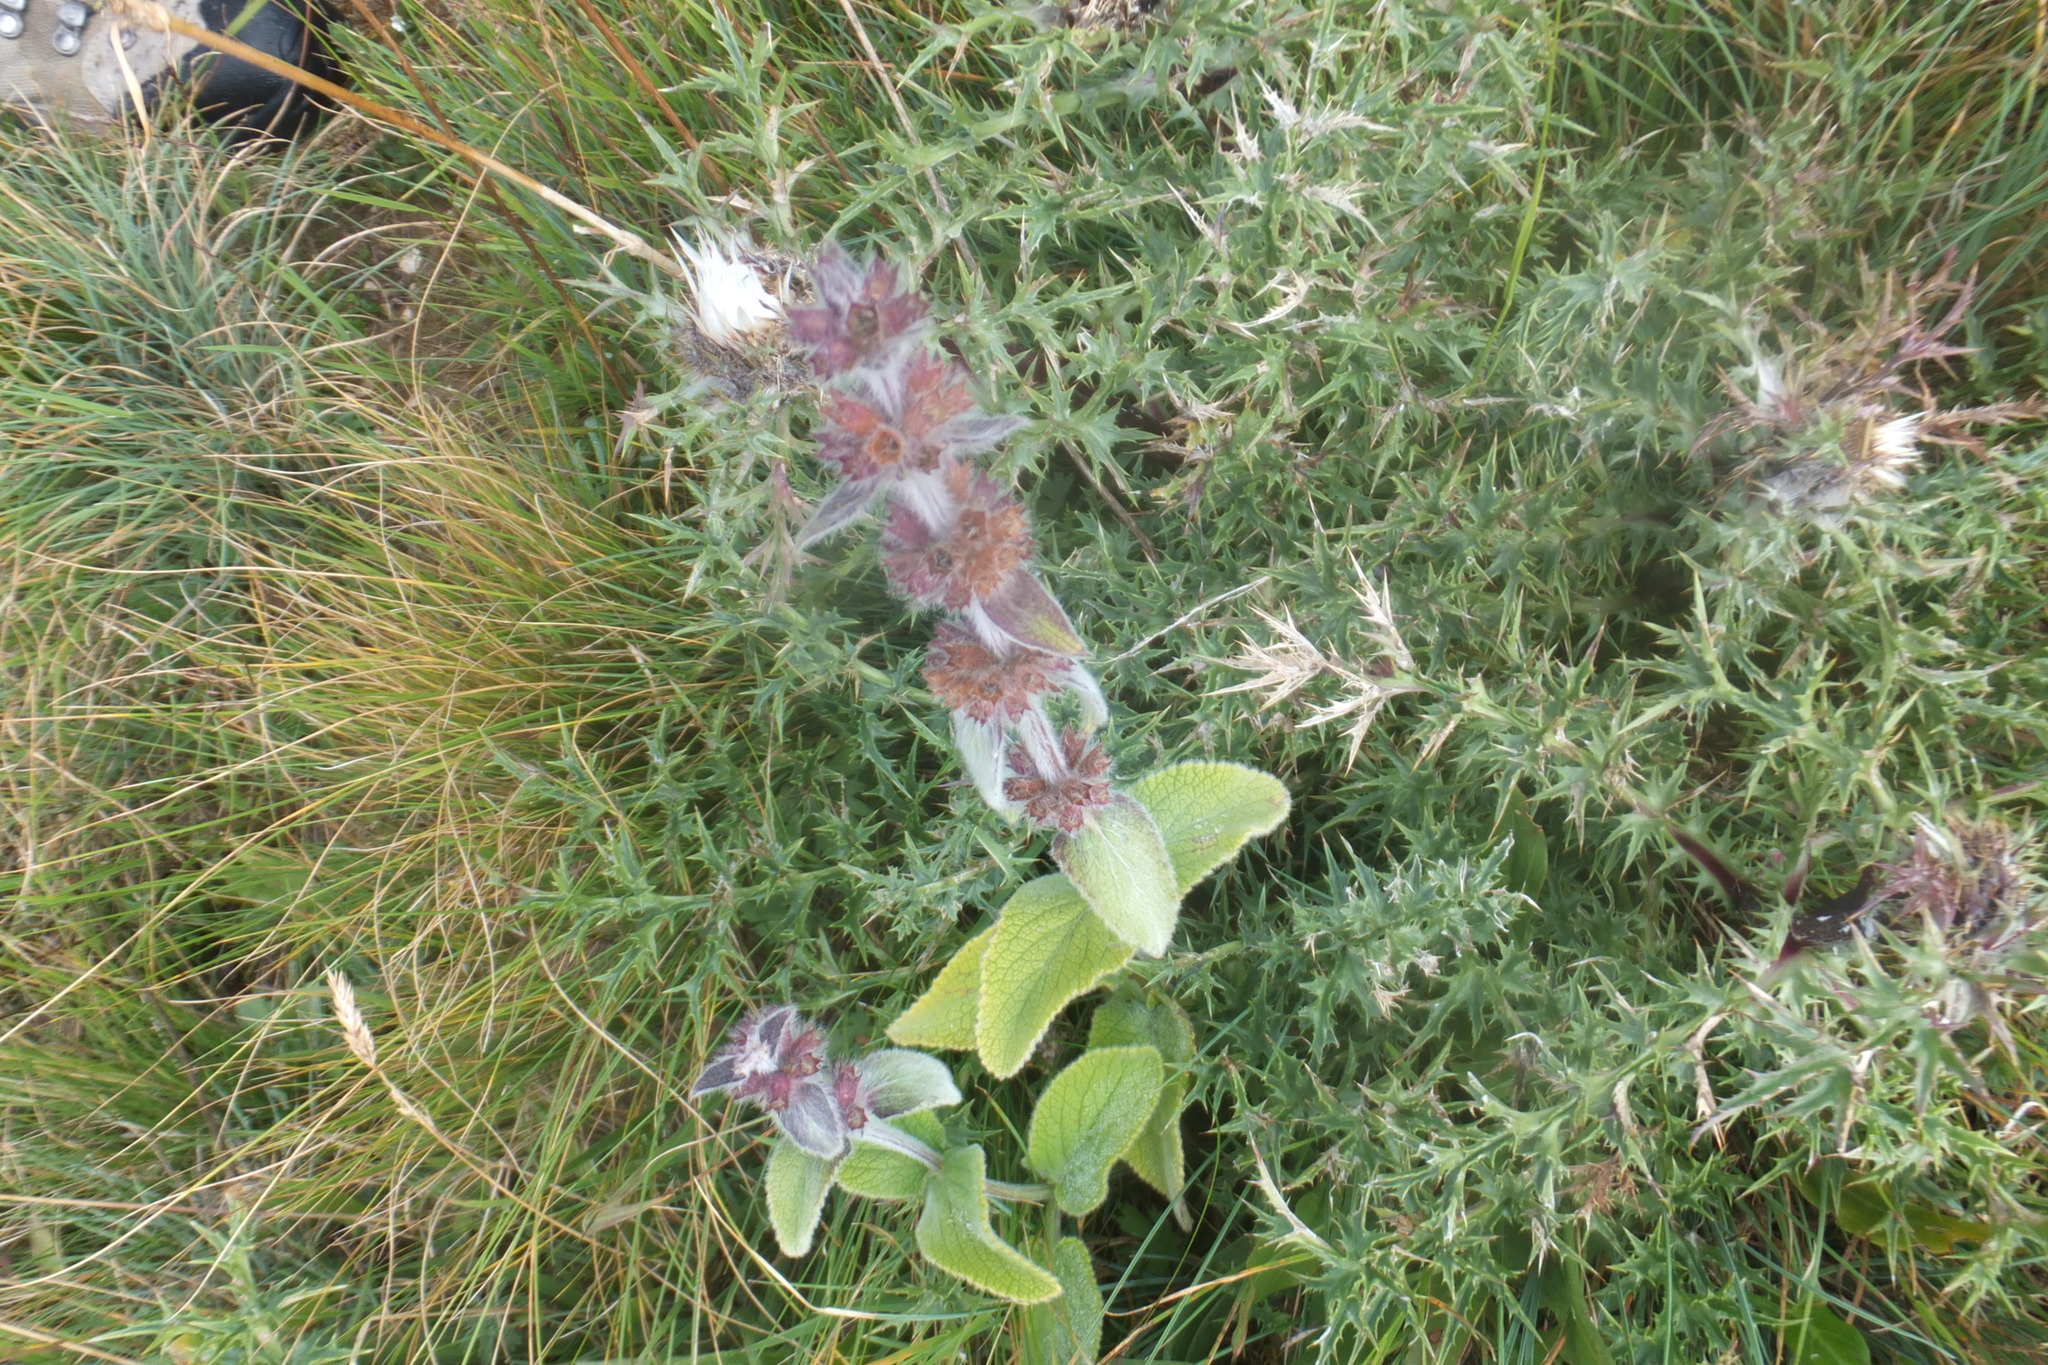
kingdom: Plantae
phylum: Tracheophyta
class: Magnoliopsida
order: Lamiales
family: Lamiaceae
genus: Stachys
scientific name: Stachys germanica
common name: Downy woundwort
